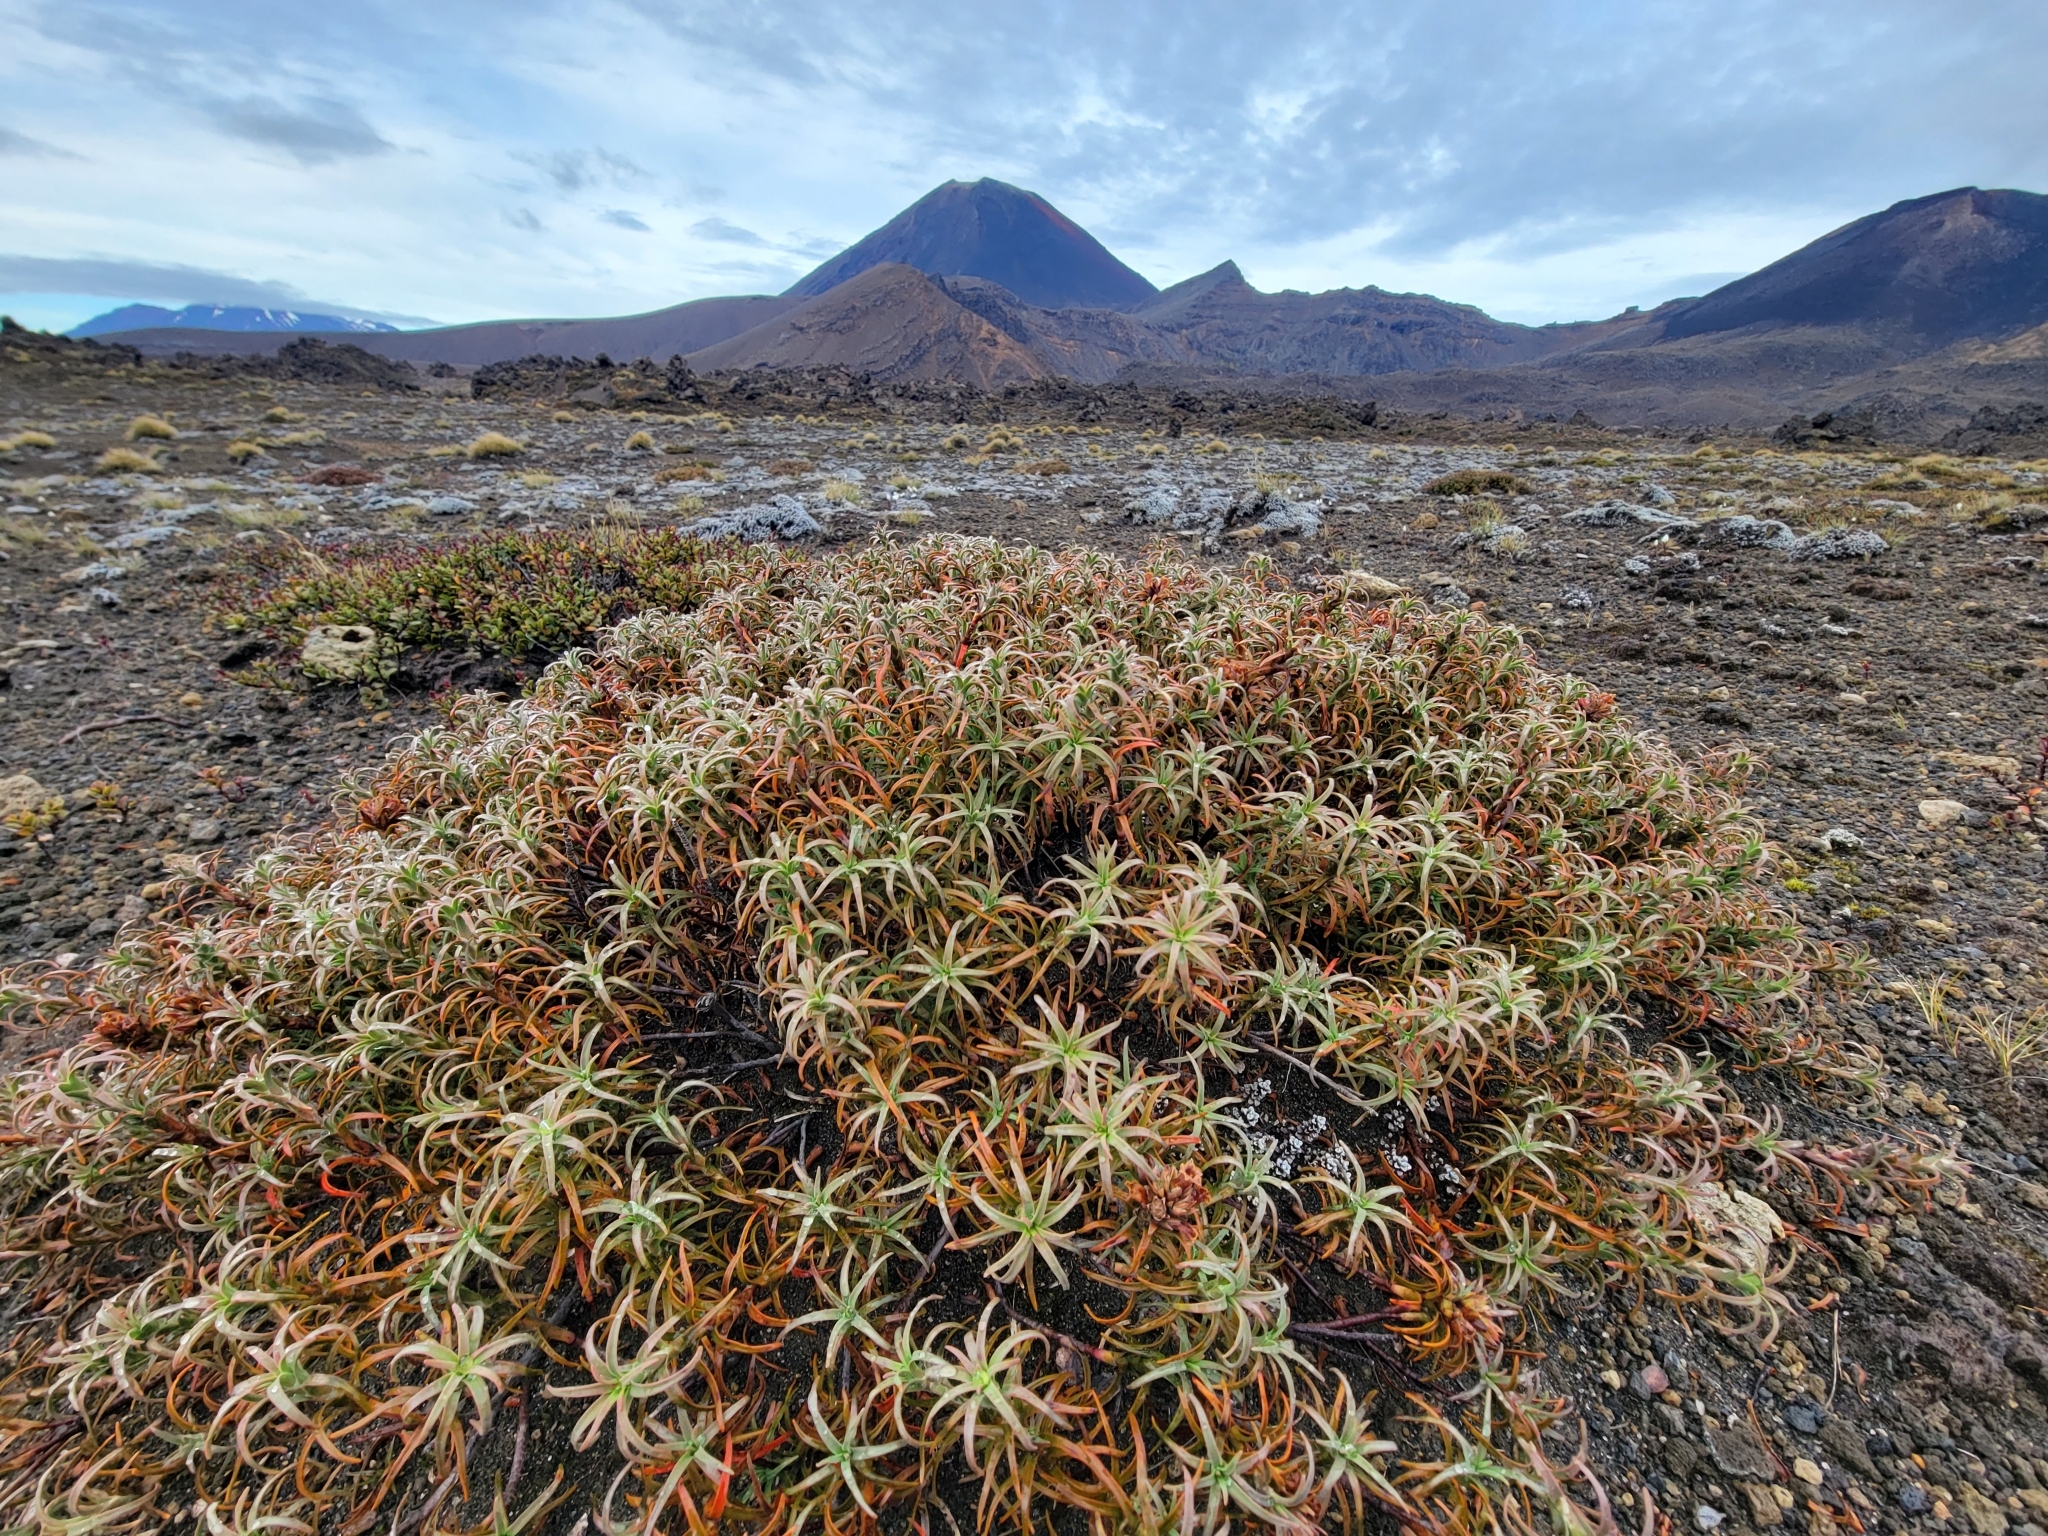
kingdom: Plantae
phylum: Tracheophyta
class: Magnoliopsida
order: Ericales
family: Ericaceae
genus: Dracophyllum
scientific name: Dracophyllum recurvum
